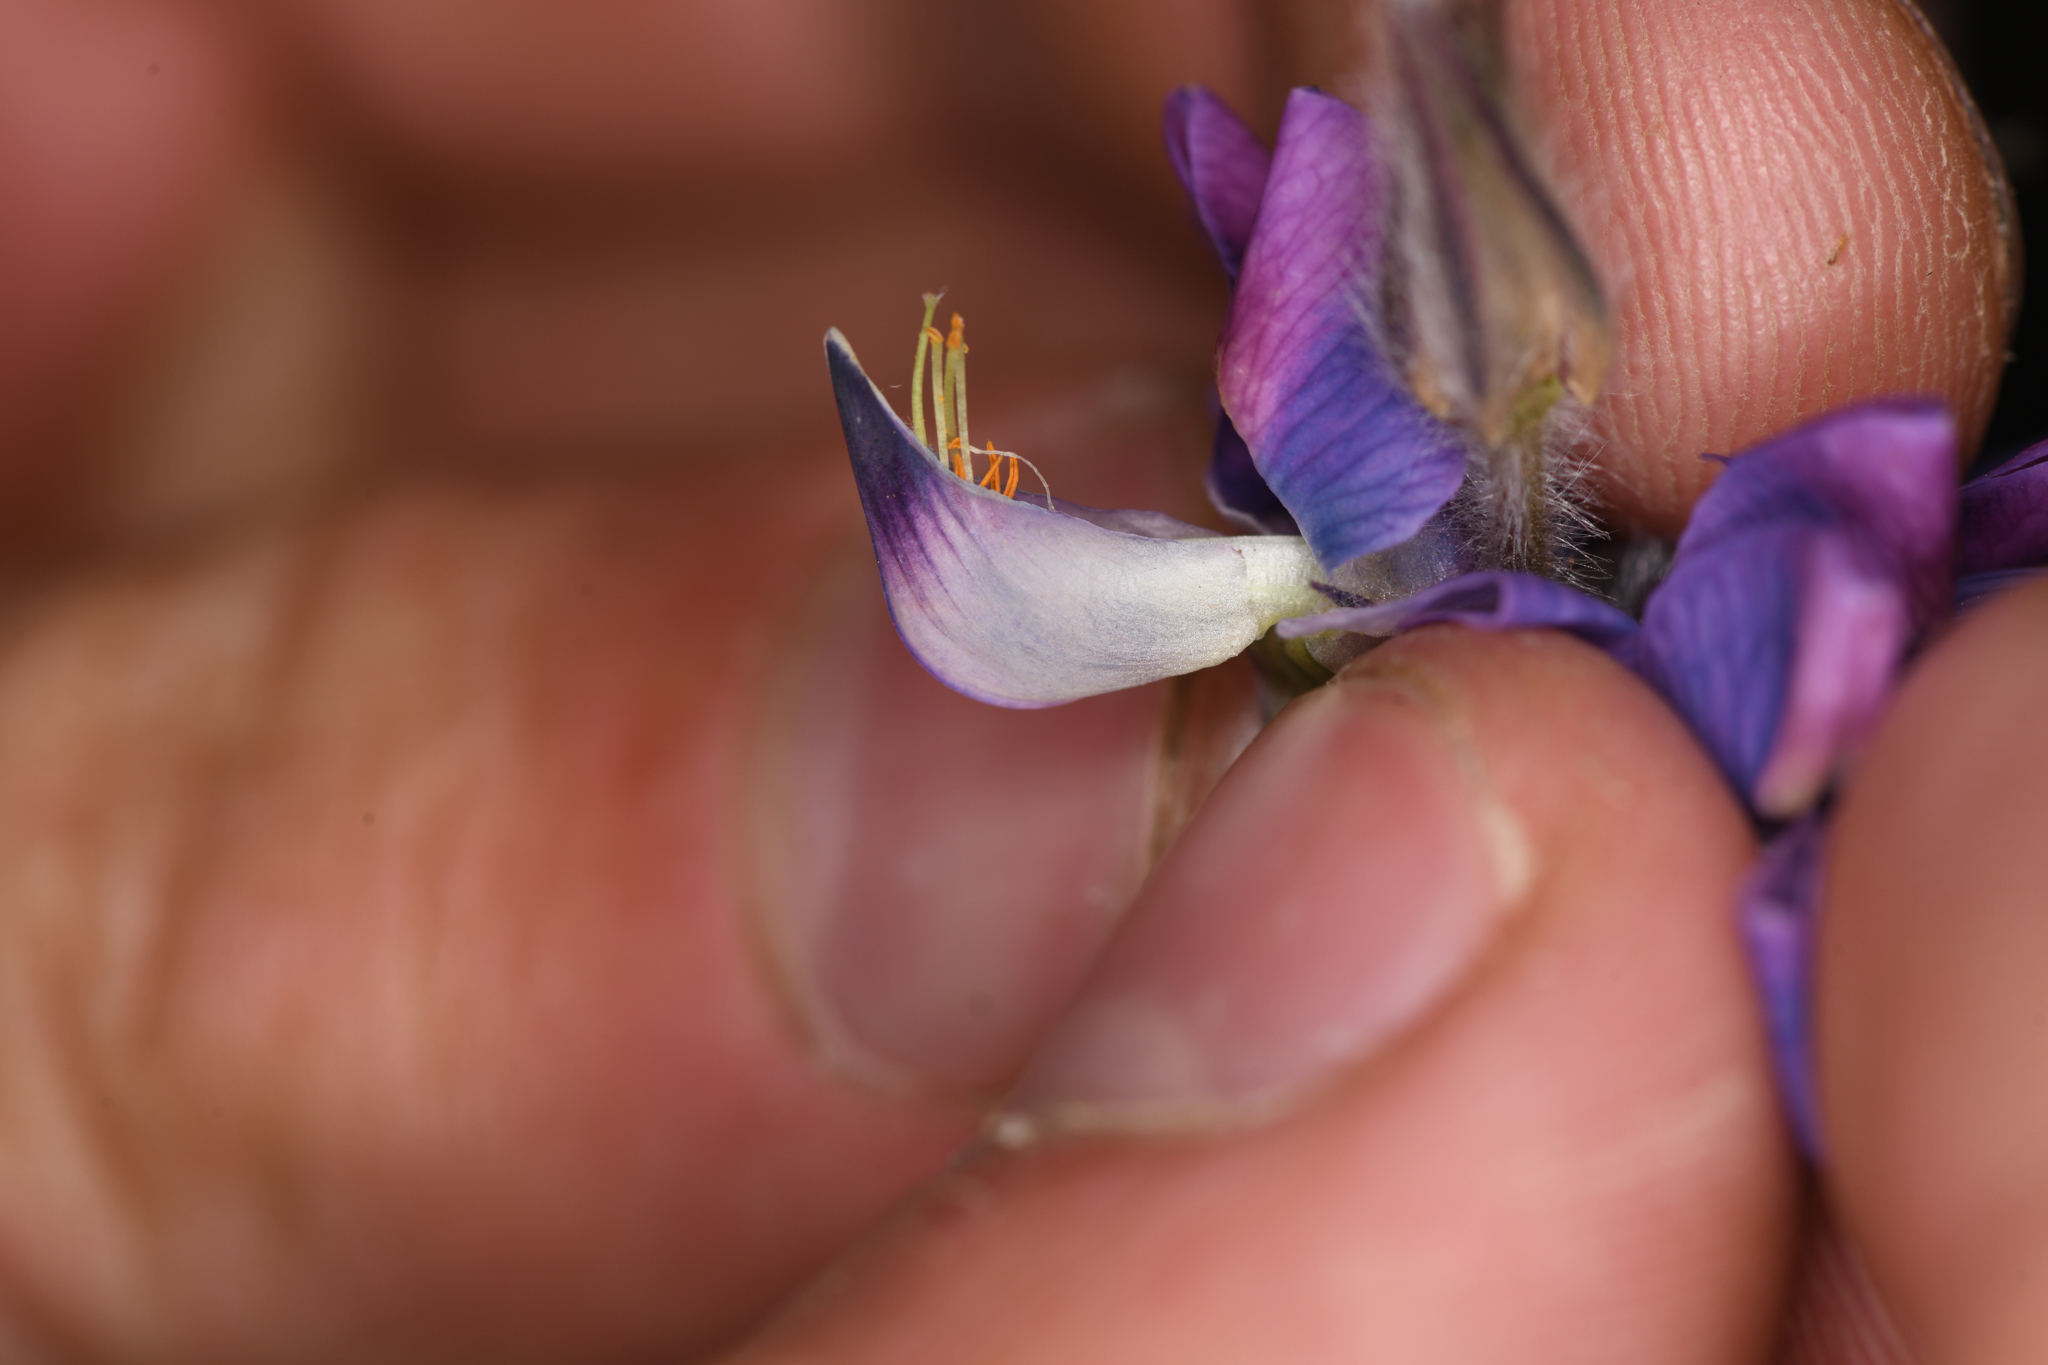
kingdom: Plantae
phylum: Tracheophyta
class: Magnoliopsida
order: Fabales
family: Fabaceae
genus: Lupinus
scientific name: Lupinus costaricensis
